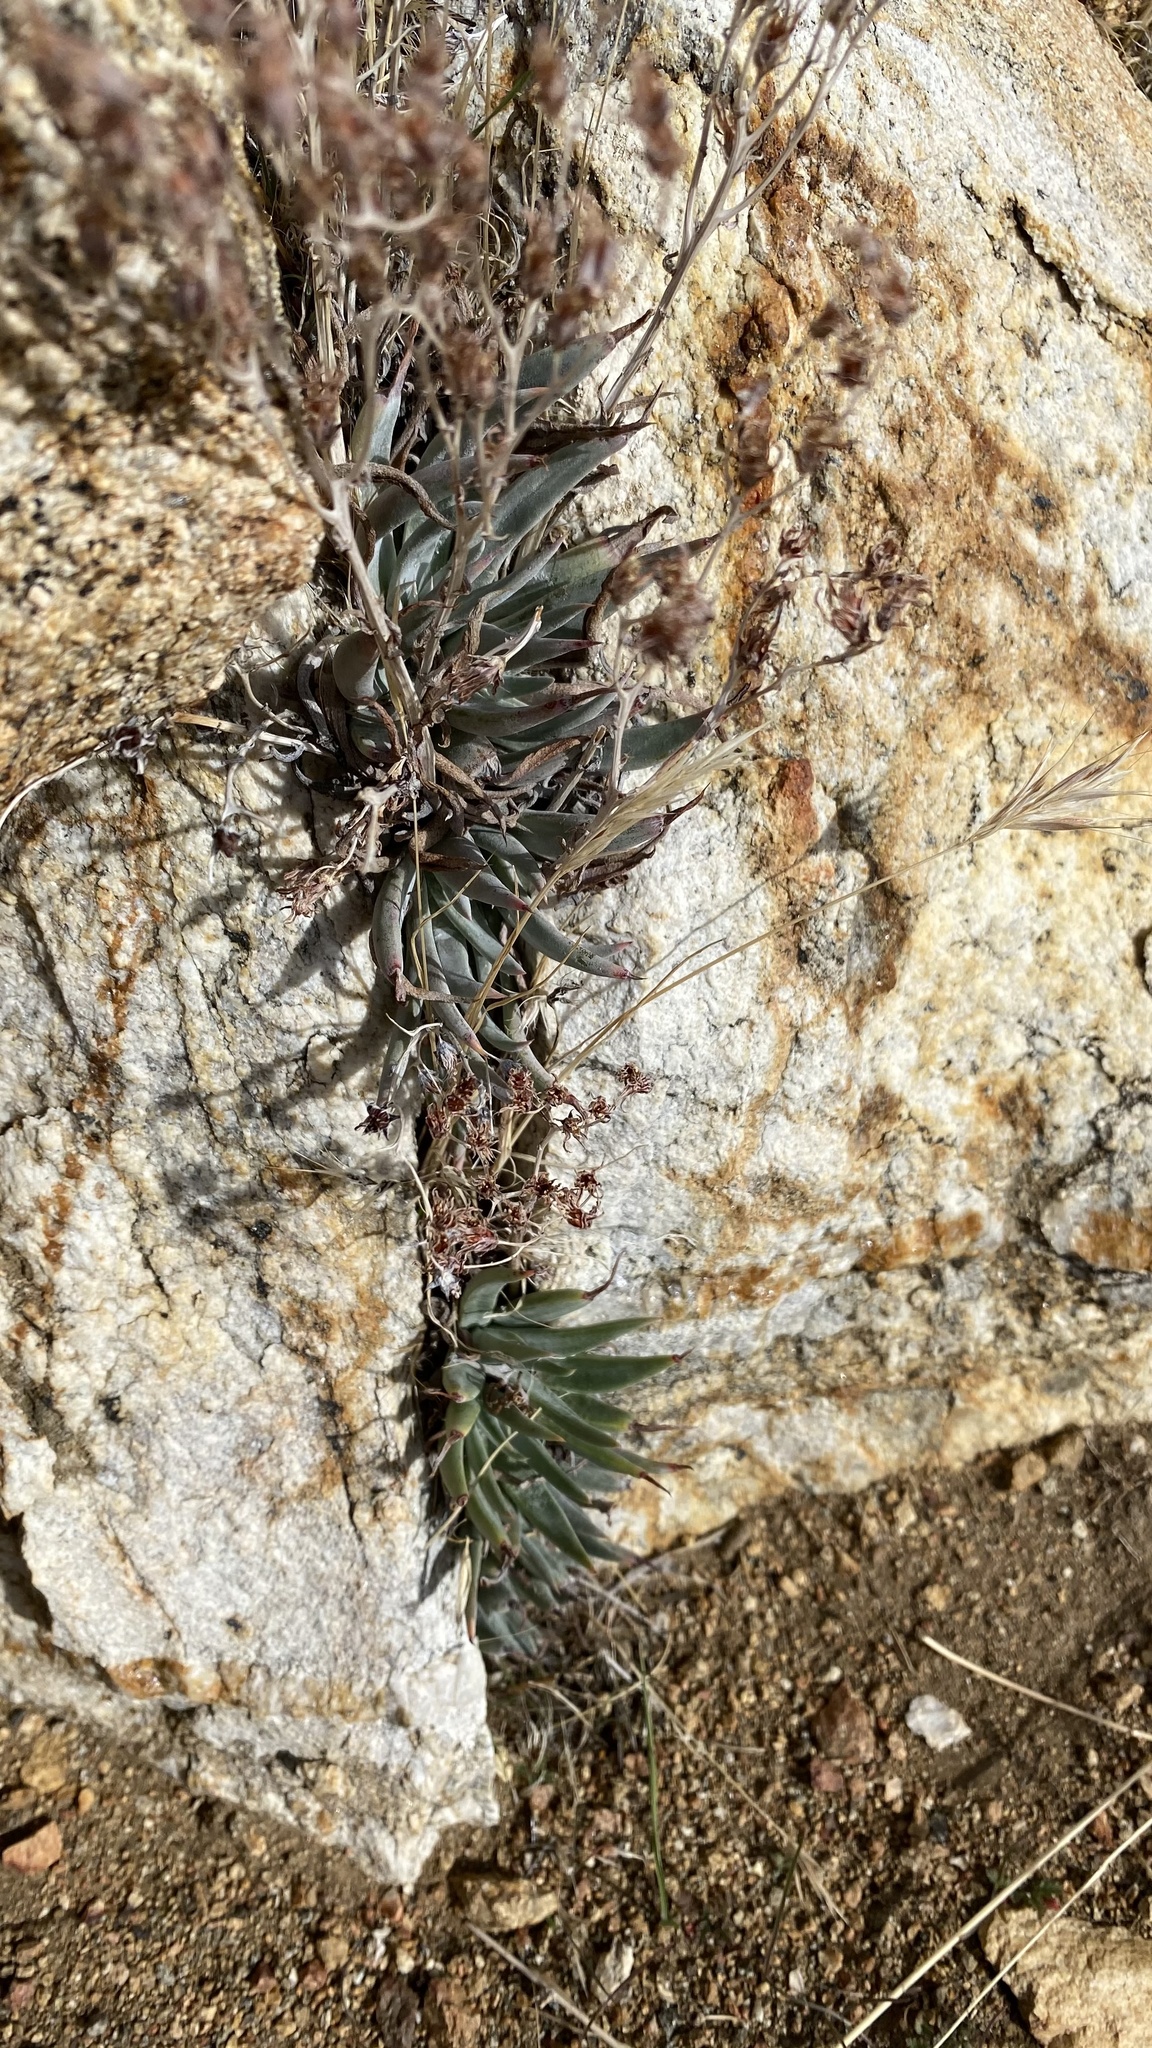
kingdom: Plantae
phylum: Tracheophyta
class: Magnoliopsida
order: Saxifragales
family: Crassulaceae
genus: Dudleya
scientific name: Dudleya calcicola
